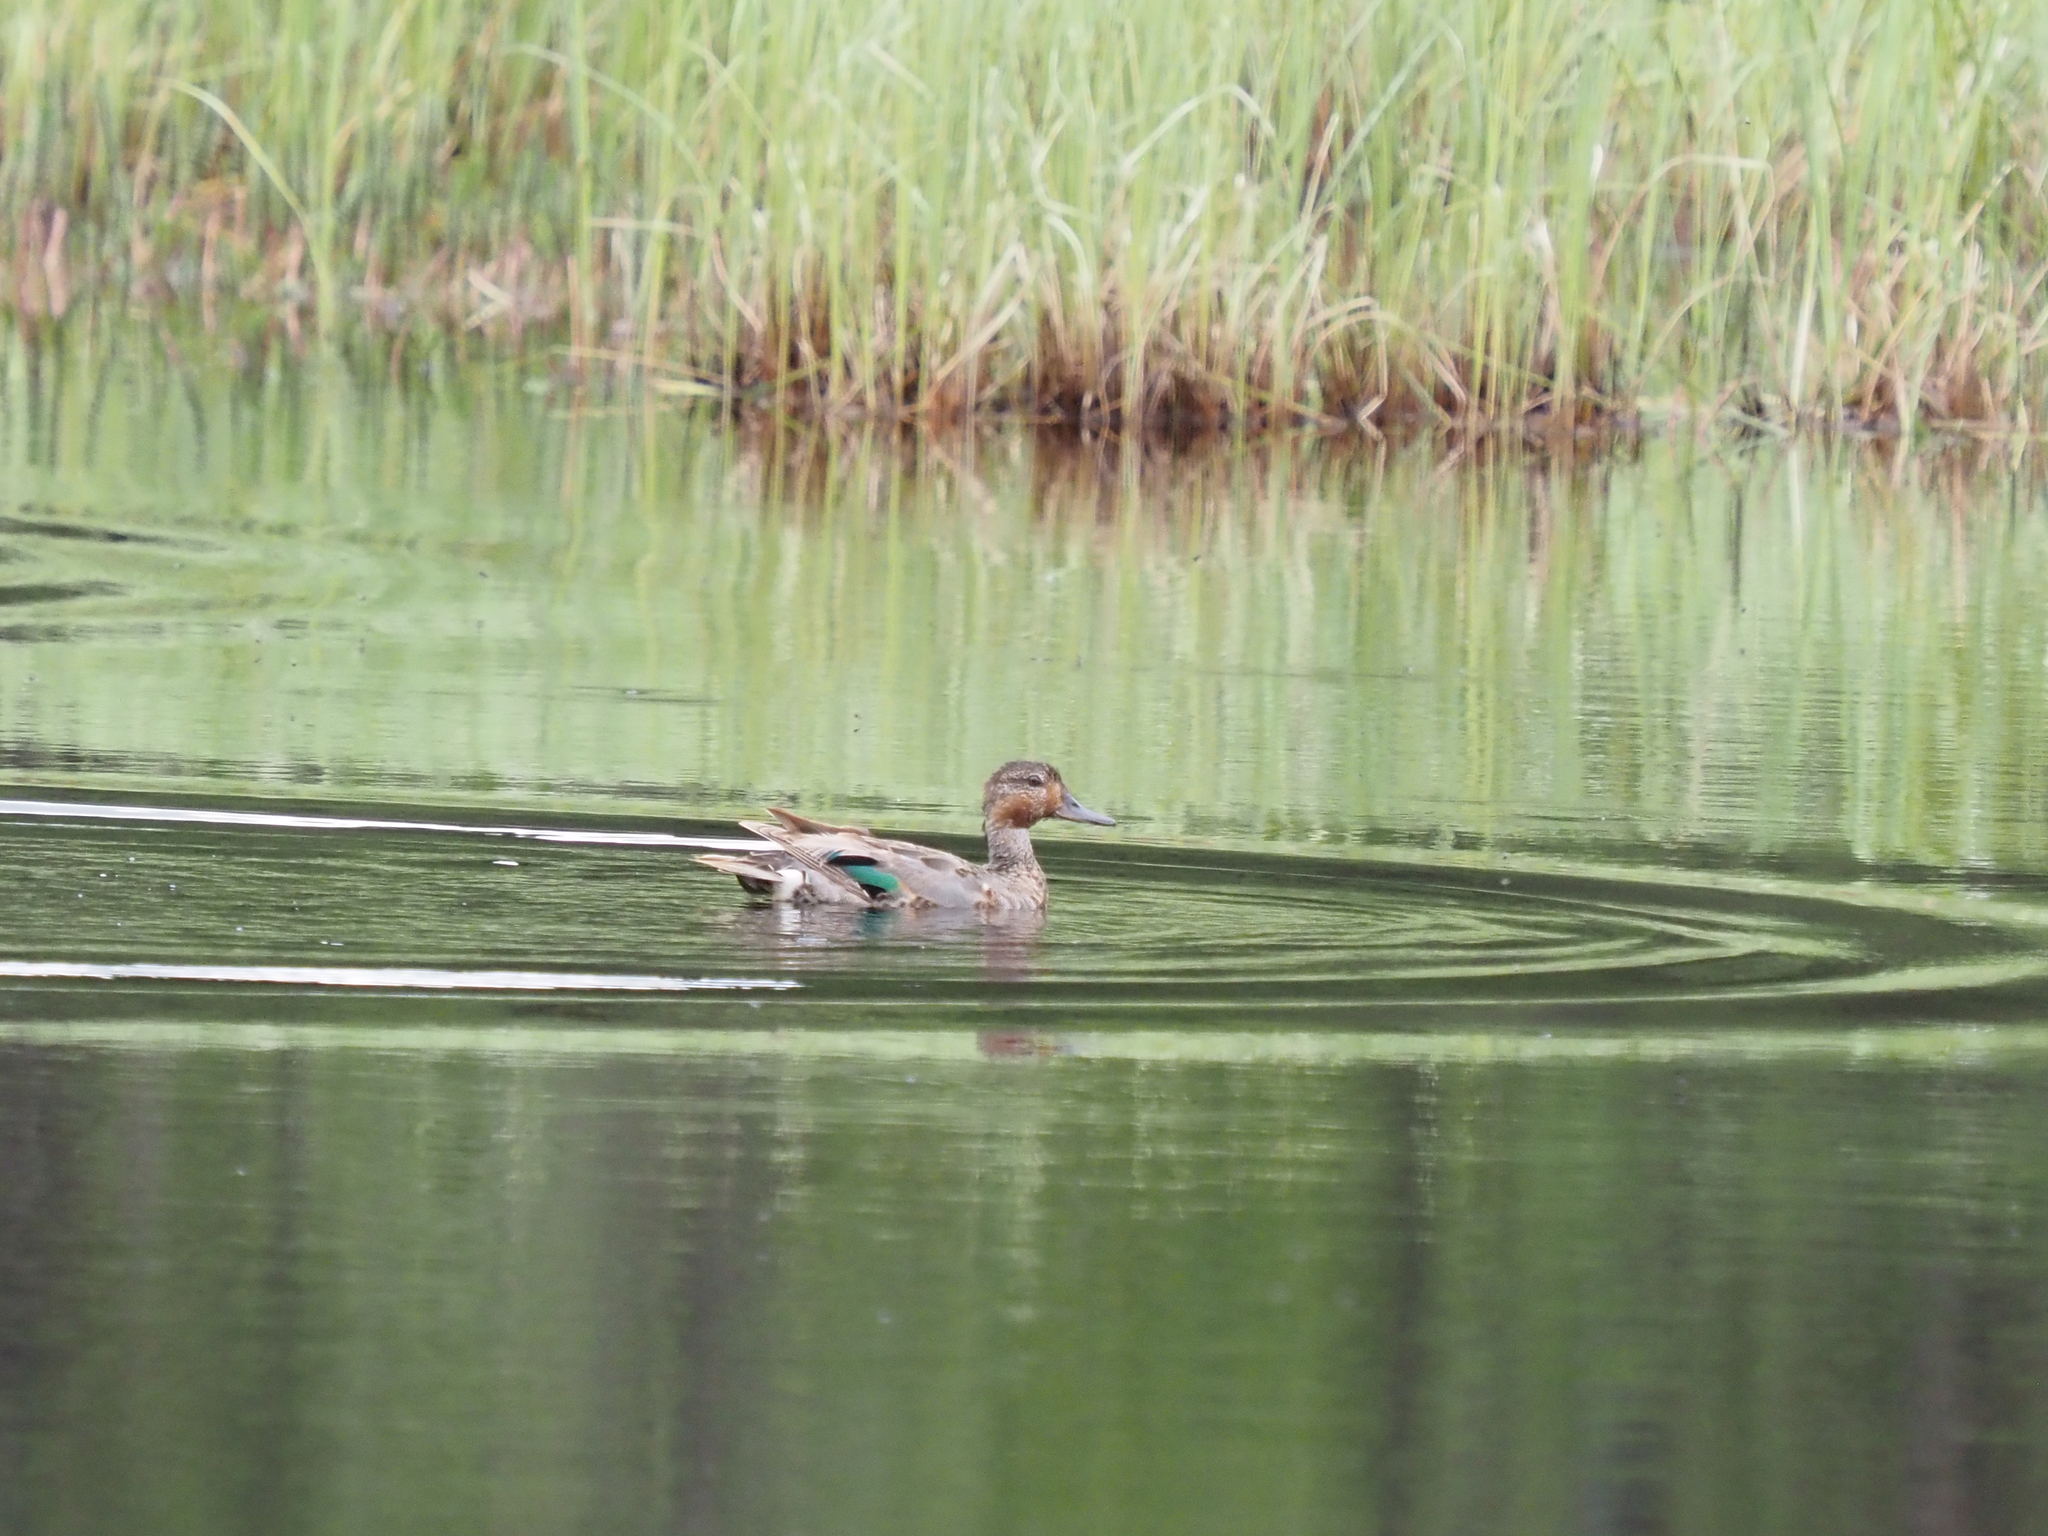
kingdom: Animalia
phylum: Chordata
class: Aves
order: Anseriformes
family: Anatidae
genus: Anas
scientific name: Anas crecca
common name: Eurasian teal
